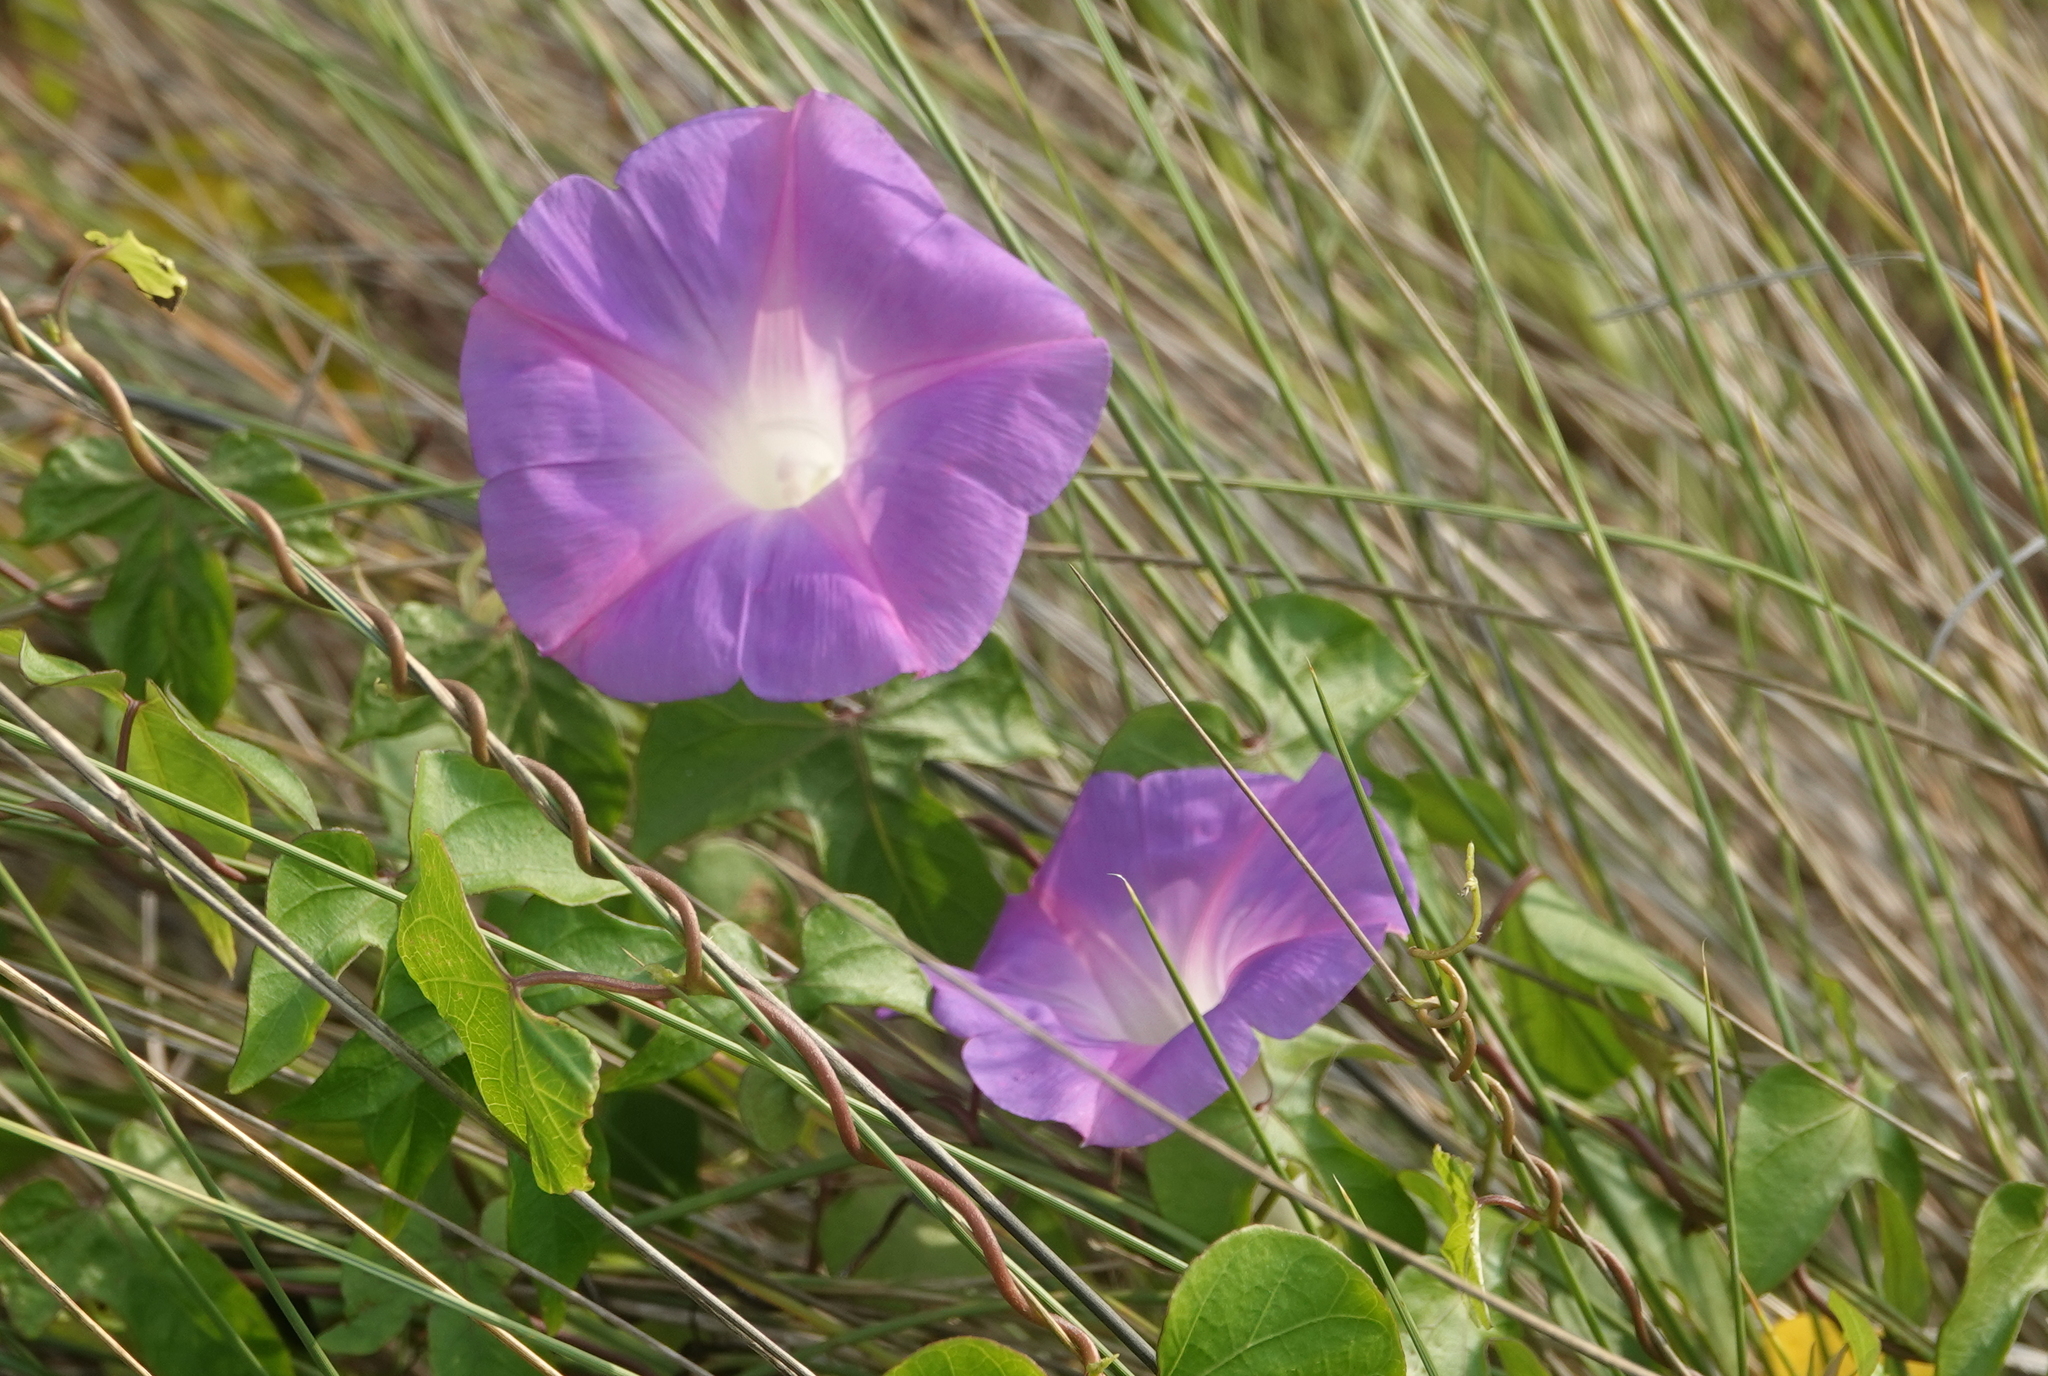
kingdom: Plantae
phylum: Tracheophyta
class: Magnoliopsida
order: Solanales
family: Convolvulaceae
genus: Ipomoea
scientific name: Ipomoea indica
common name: Blue dawnflower
